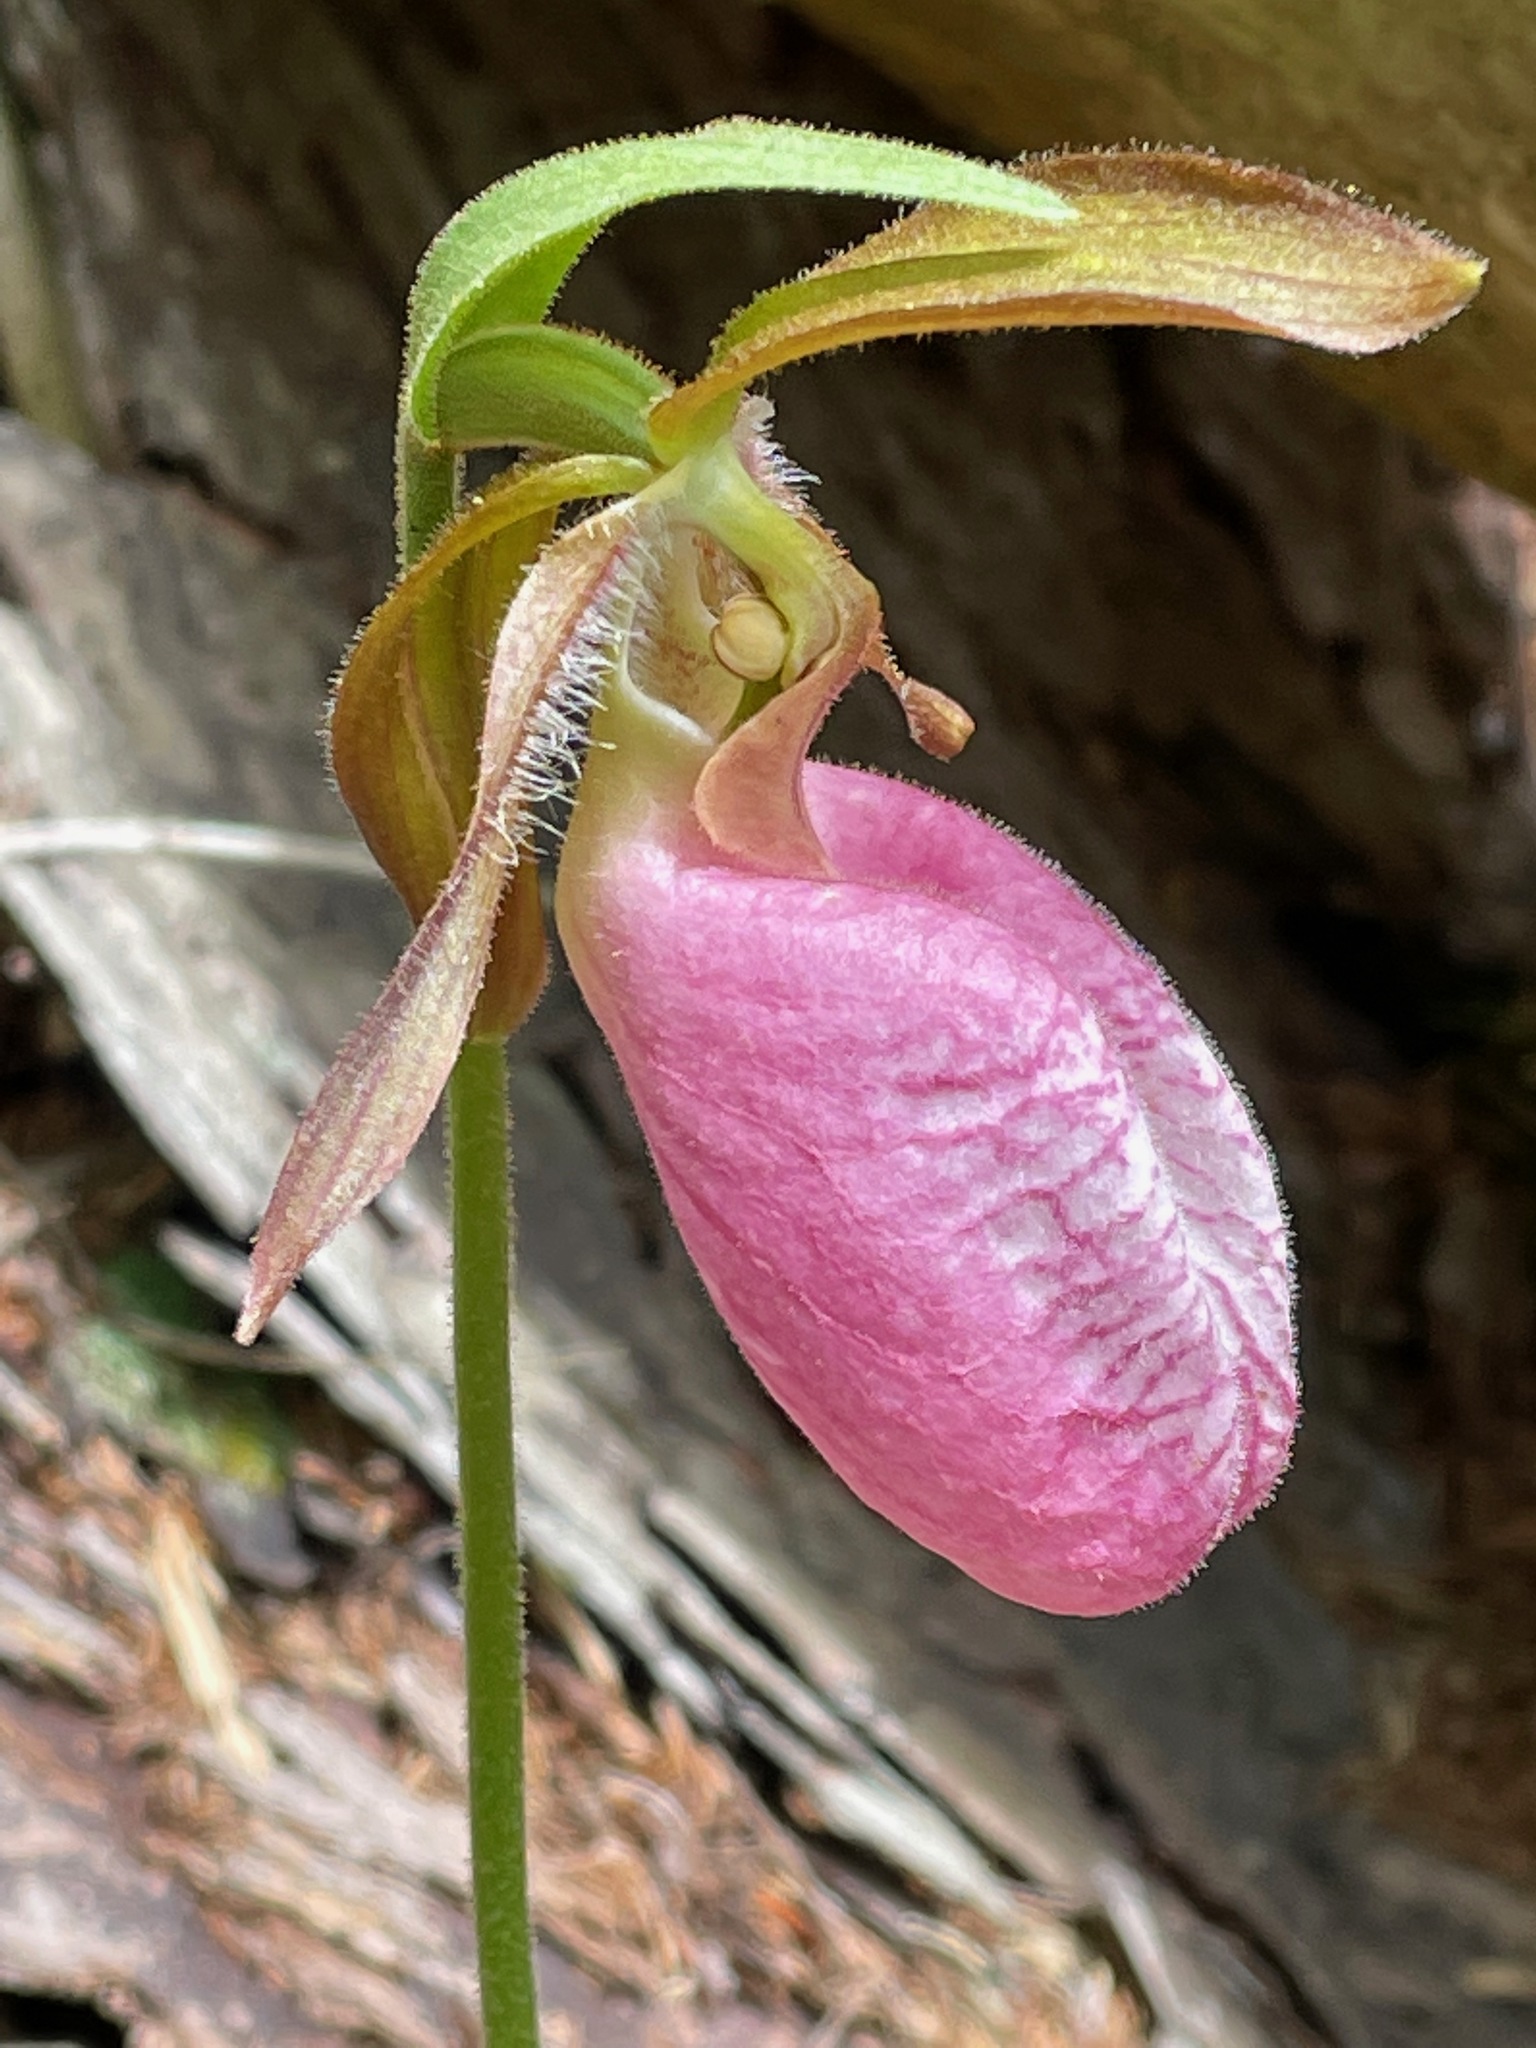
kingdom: Plantae
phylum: Tracheophyta
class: Liliopsida
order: Asparagales
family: Orchidaceae
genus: Cypripedium
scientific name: Cypripedium acaule
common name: Pink lady's-slipper
